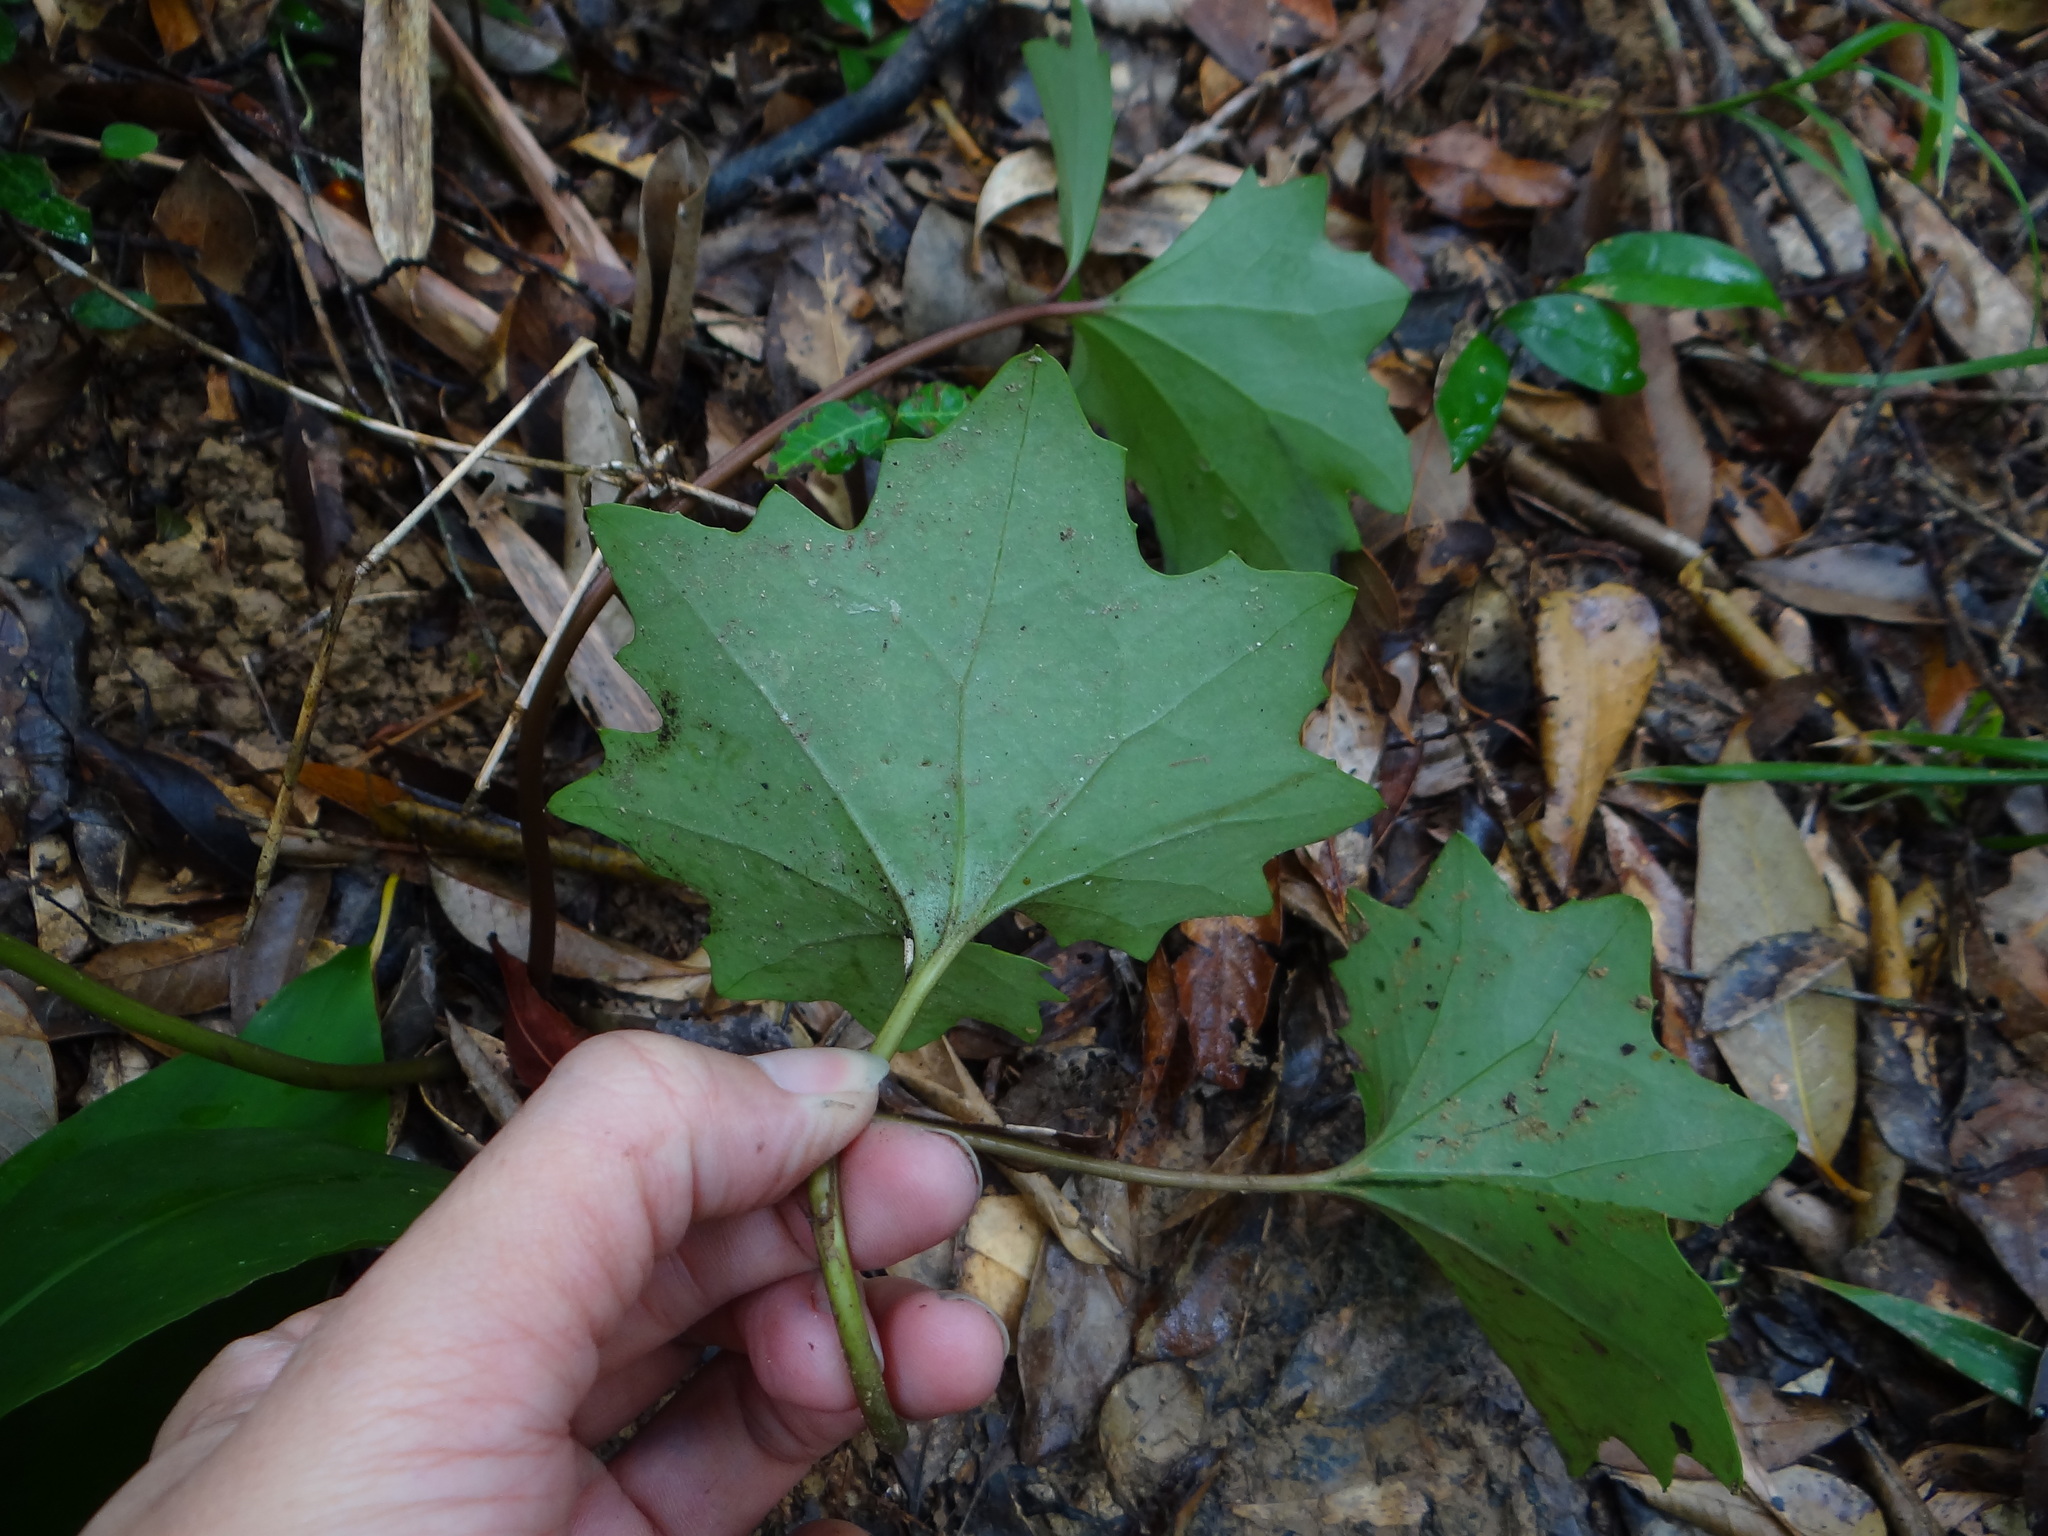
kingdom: Plantae
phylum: Tracheophyta
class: Magnoliopsida
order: Asterales
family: Asteraceae
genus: Farfugium
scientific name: Farfugium japonicum
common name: Leopardplant
